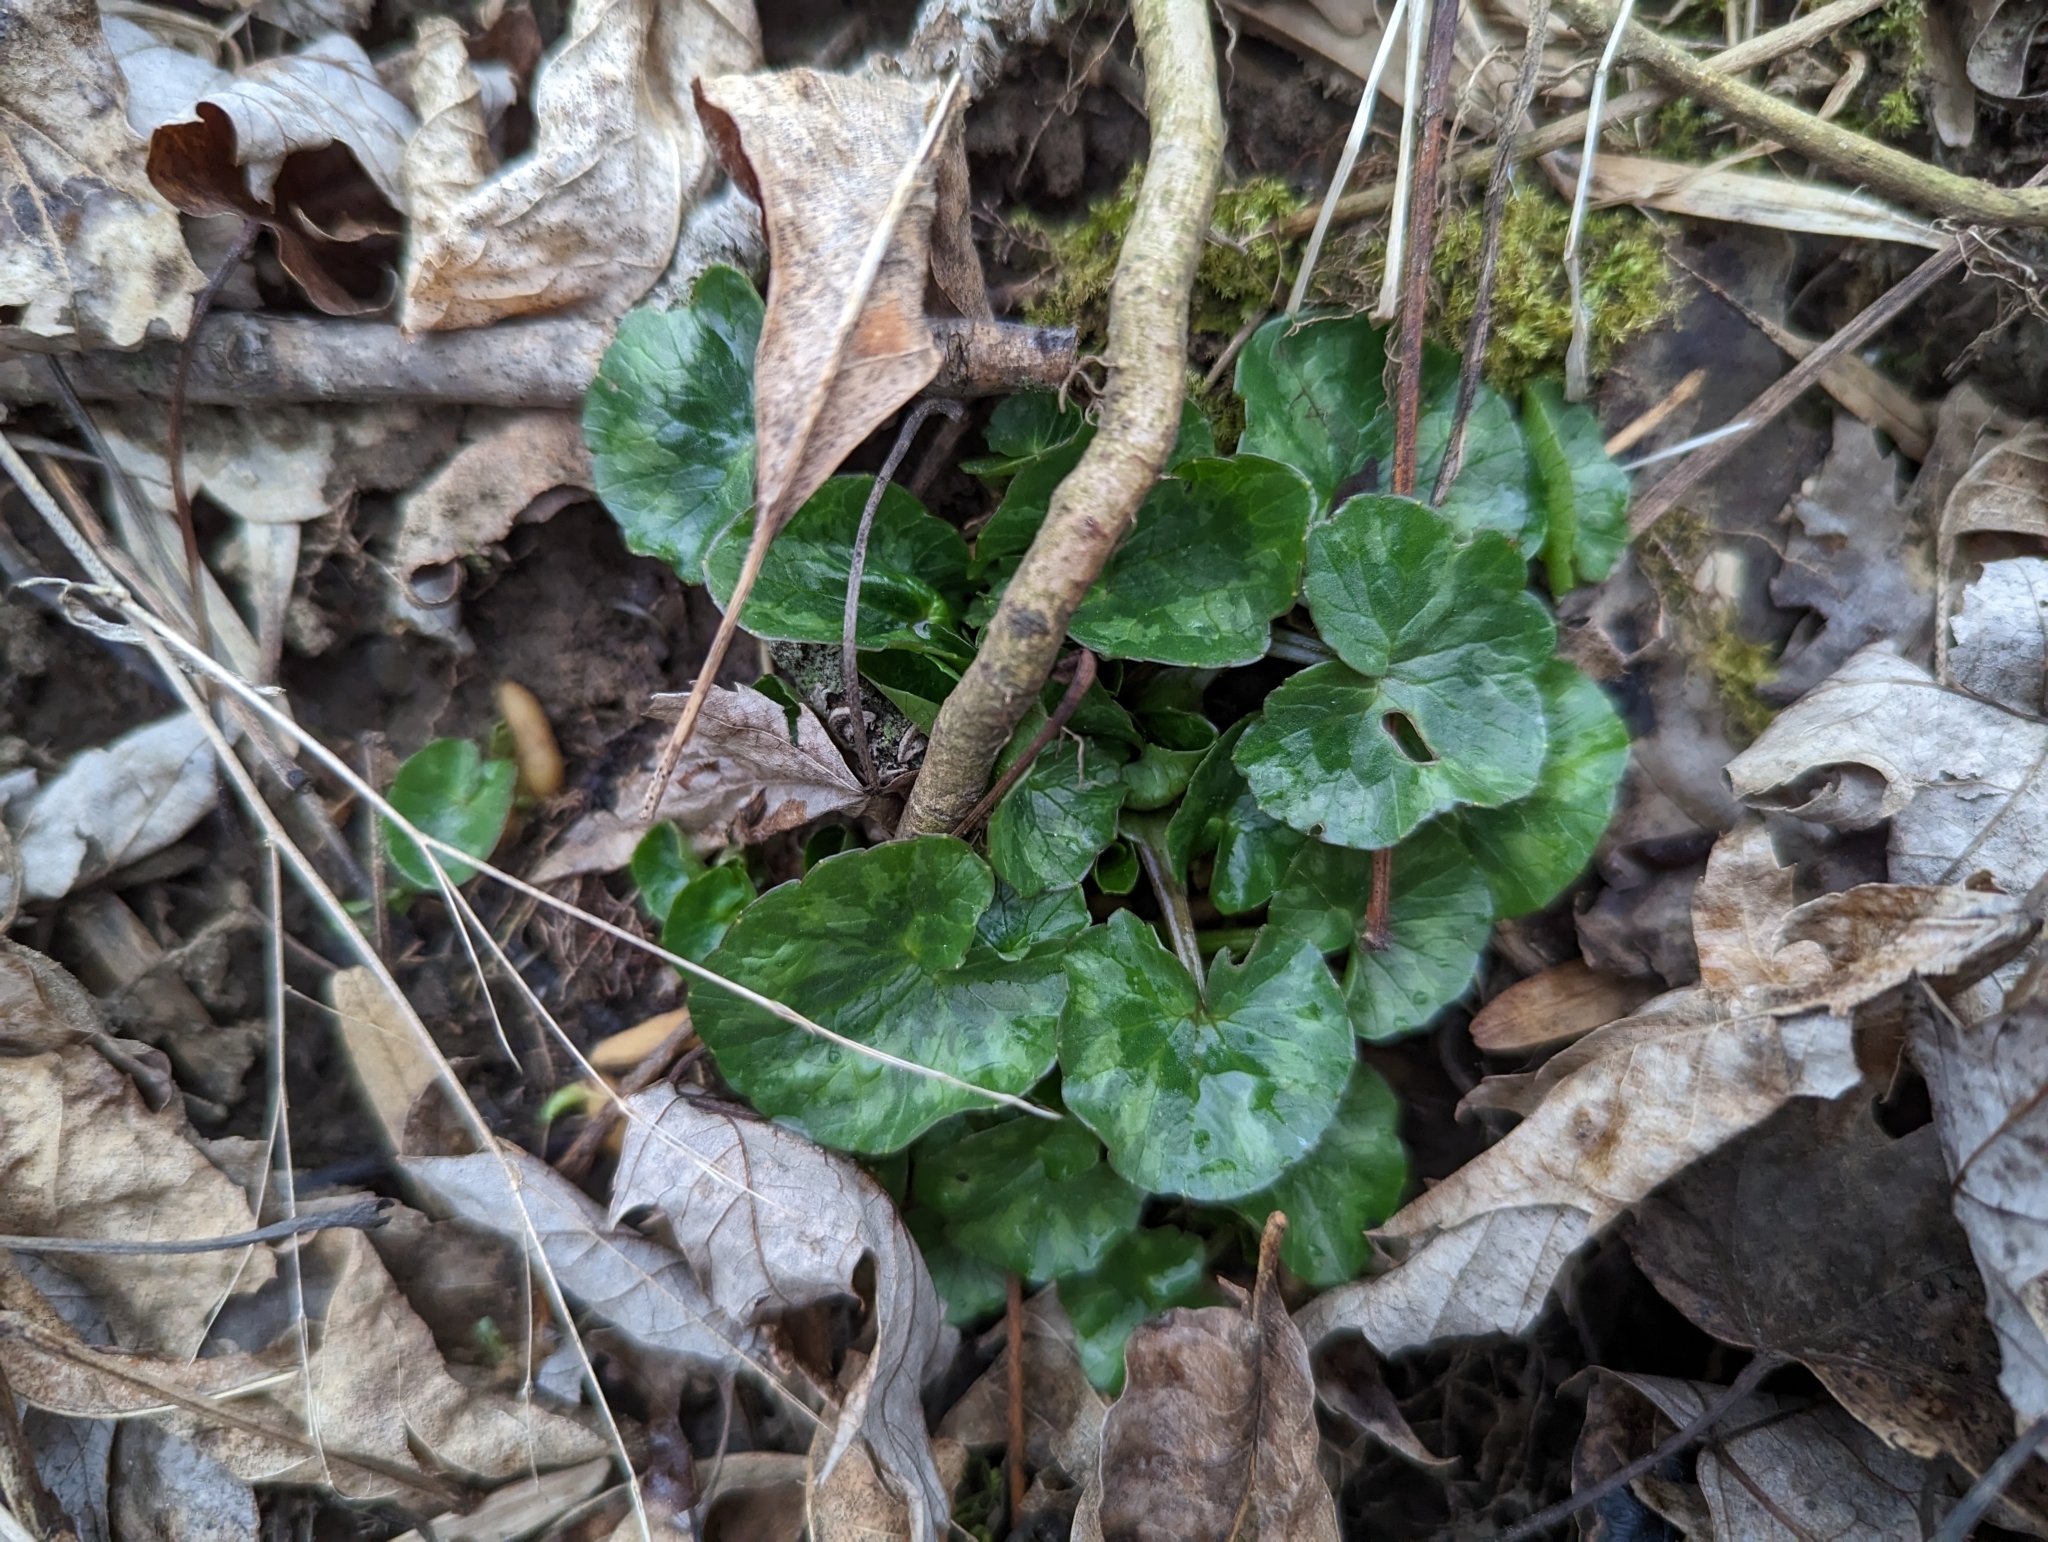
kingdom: Plantae
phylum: Tracheophyta
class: Magnoliopsida
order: Ranunculales
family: Ranunculaceae
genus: Ficaria
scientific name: Ficaria verna
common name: Lesser celandine
